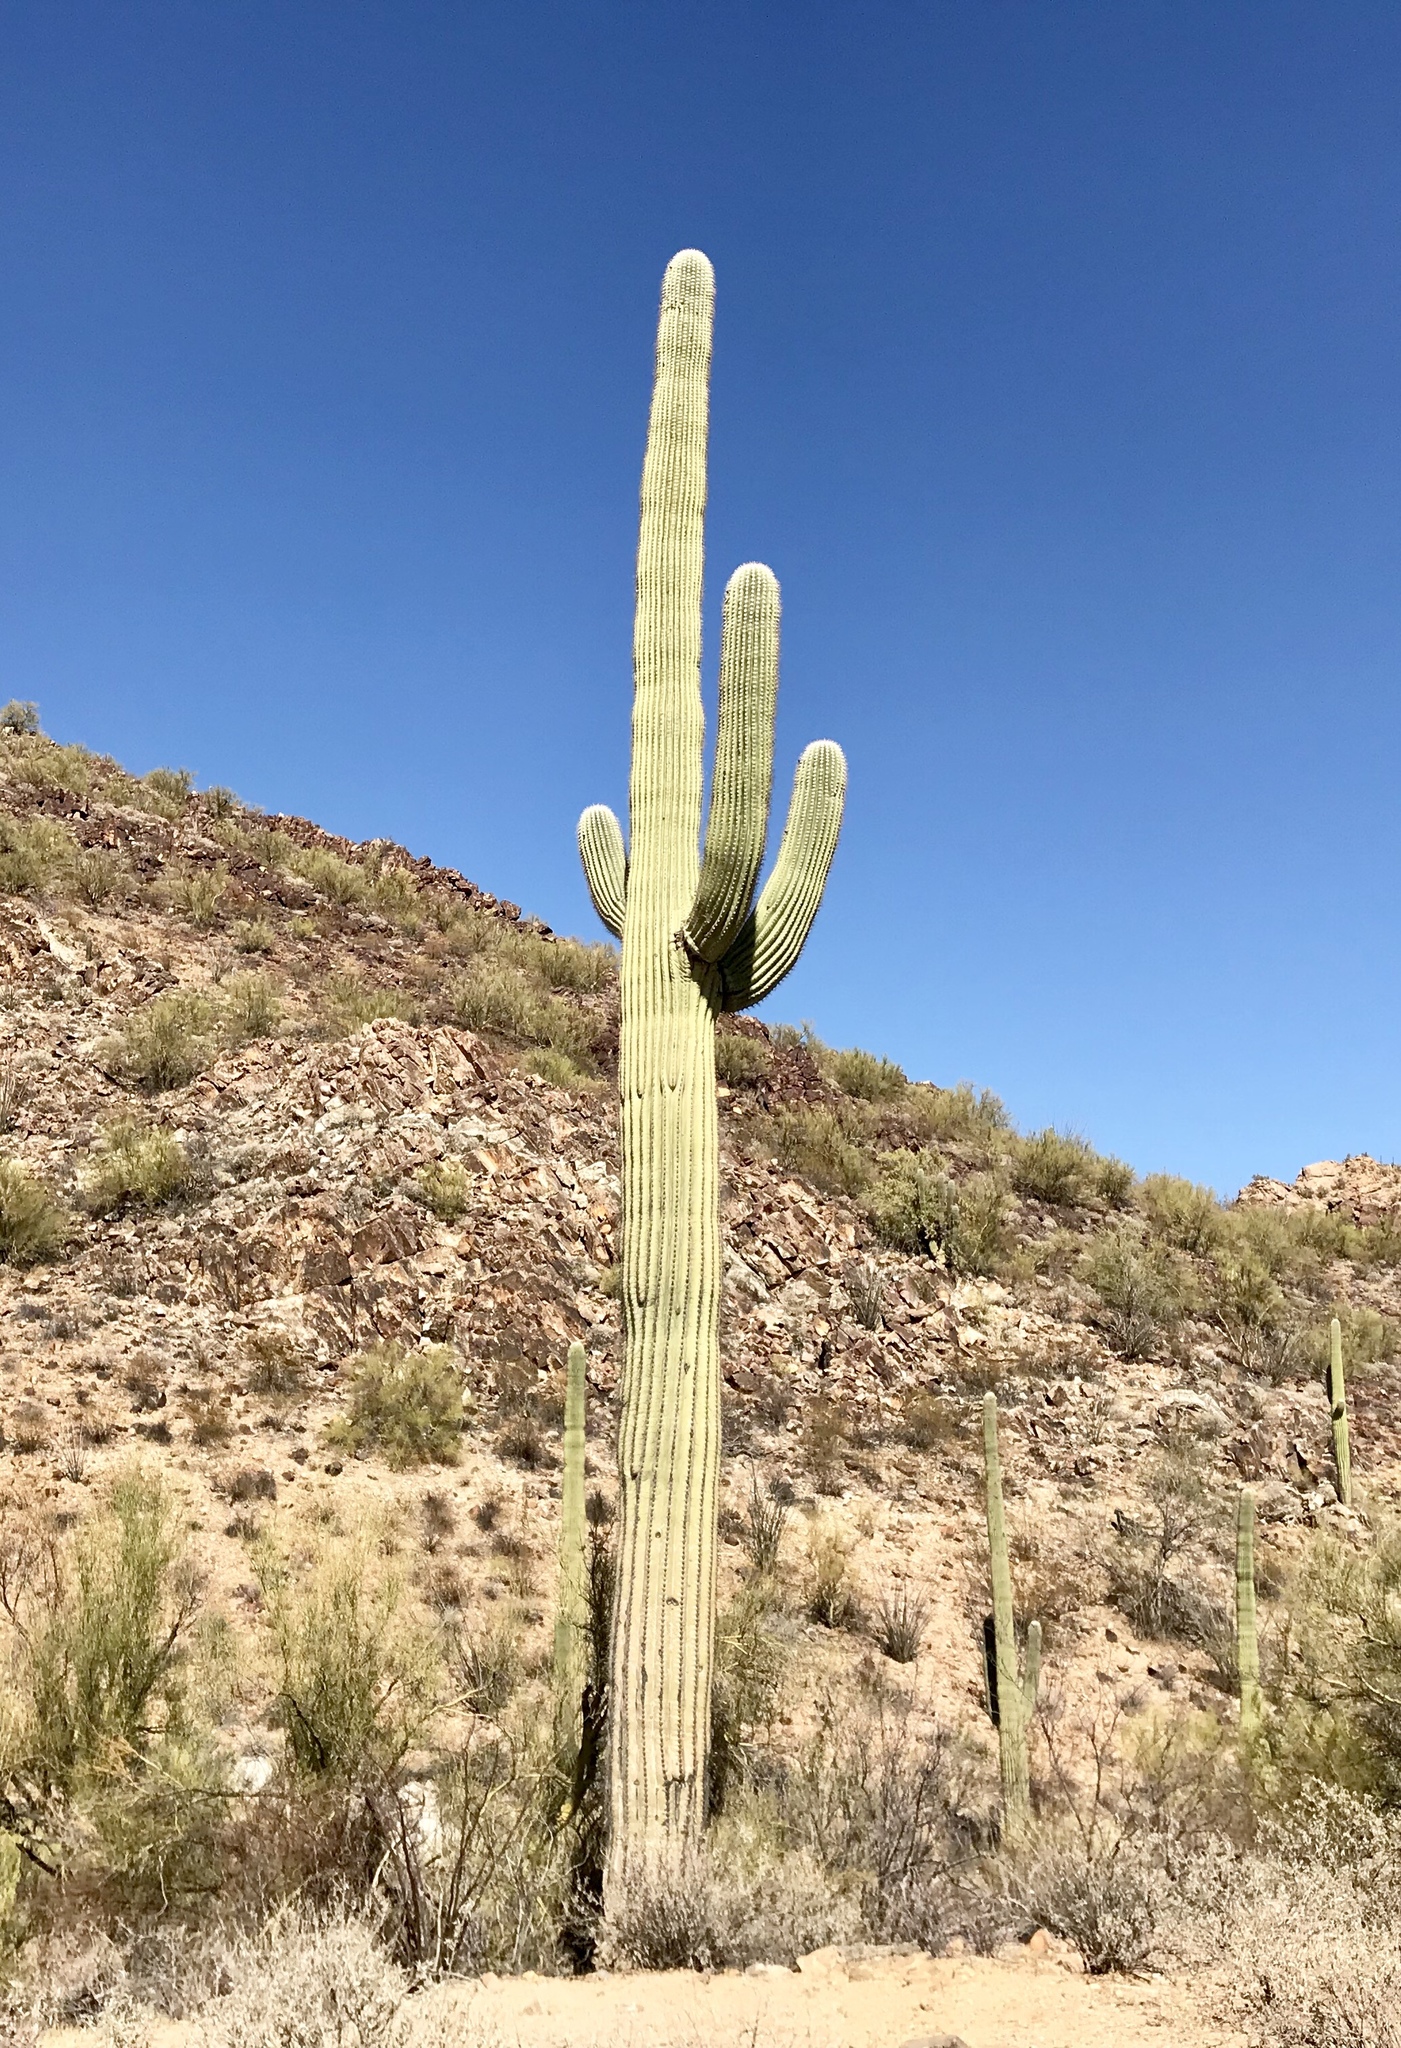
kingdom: Plantae
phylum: Tracheophyta
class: Magnoliopsida
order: Caryophyllales
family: Cactaceae
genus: Carnegiea
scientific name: Carnegiea gigantea
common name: Saguaro
